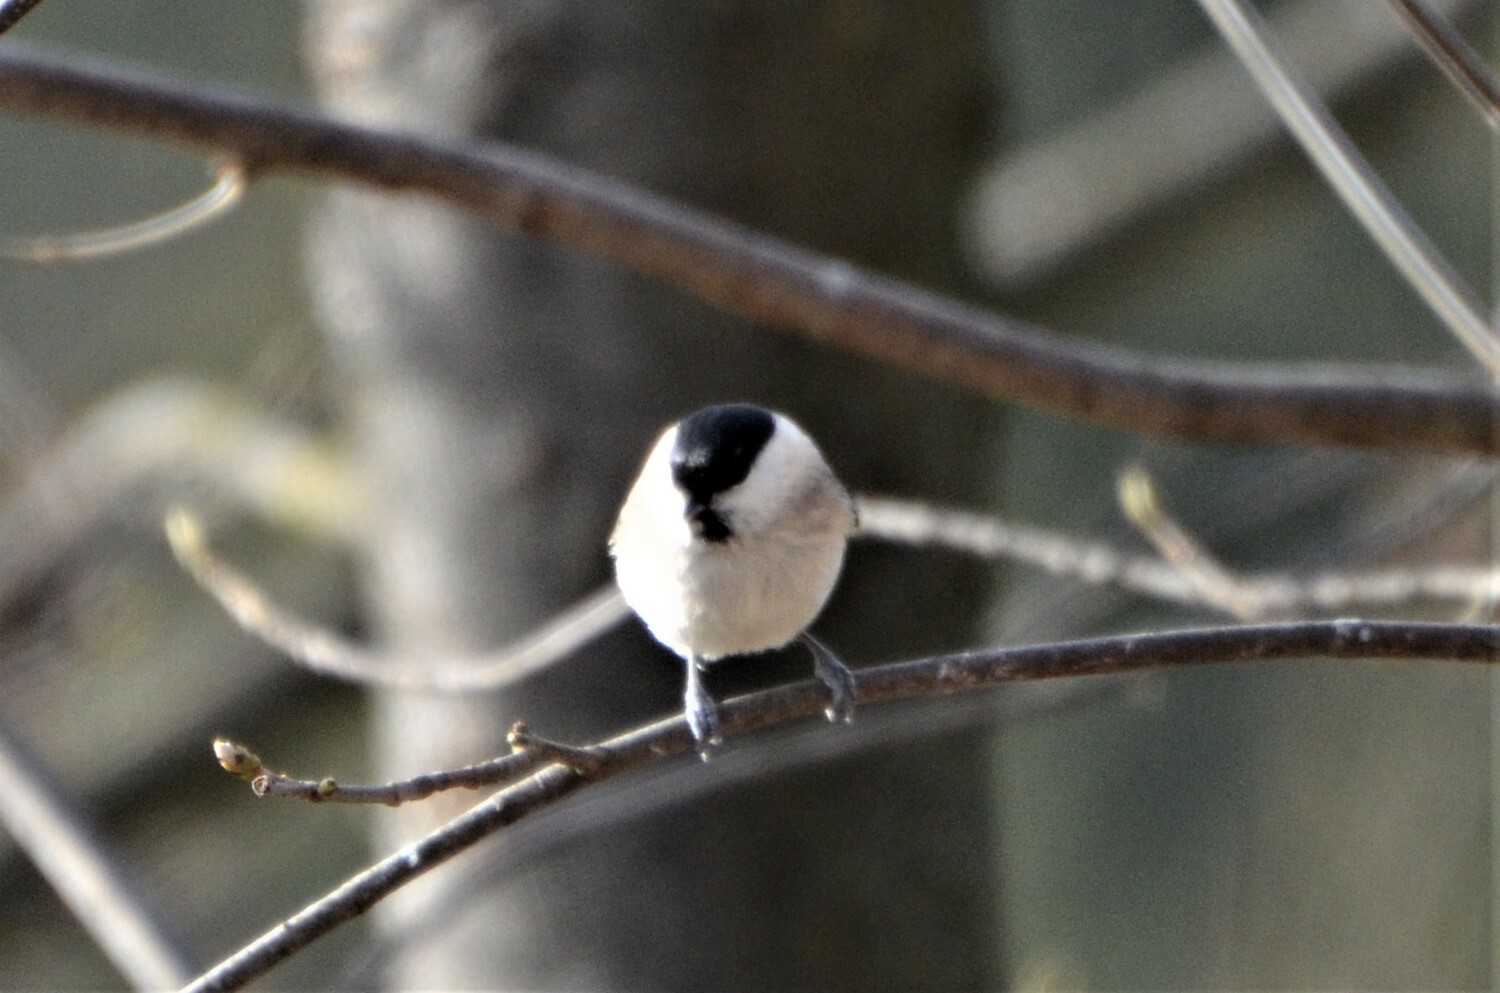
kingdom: Animalia
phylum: Chordata
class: Aves
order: Passeriformes
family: Paridae
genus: Poecile
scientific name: Poecile palustris
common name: Marsh tit
